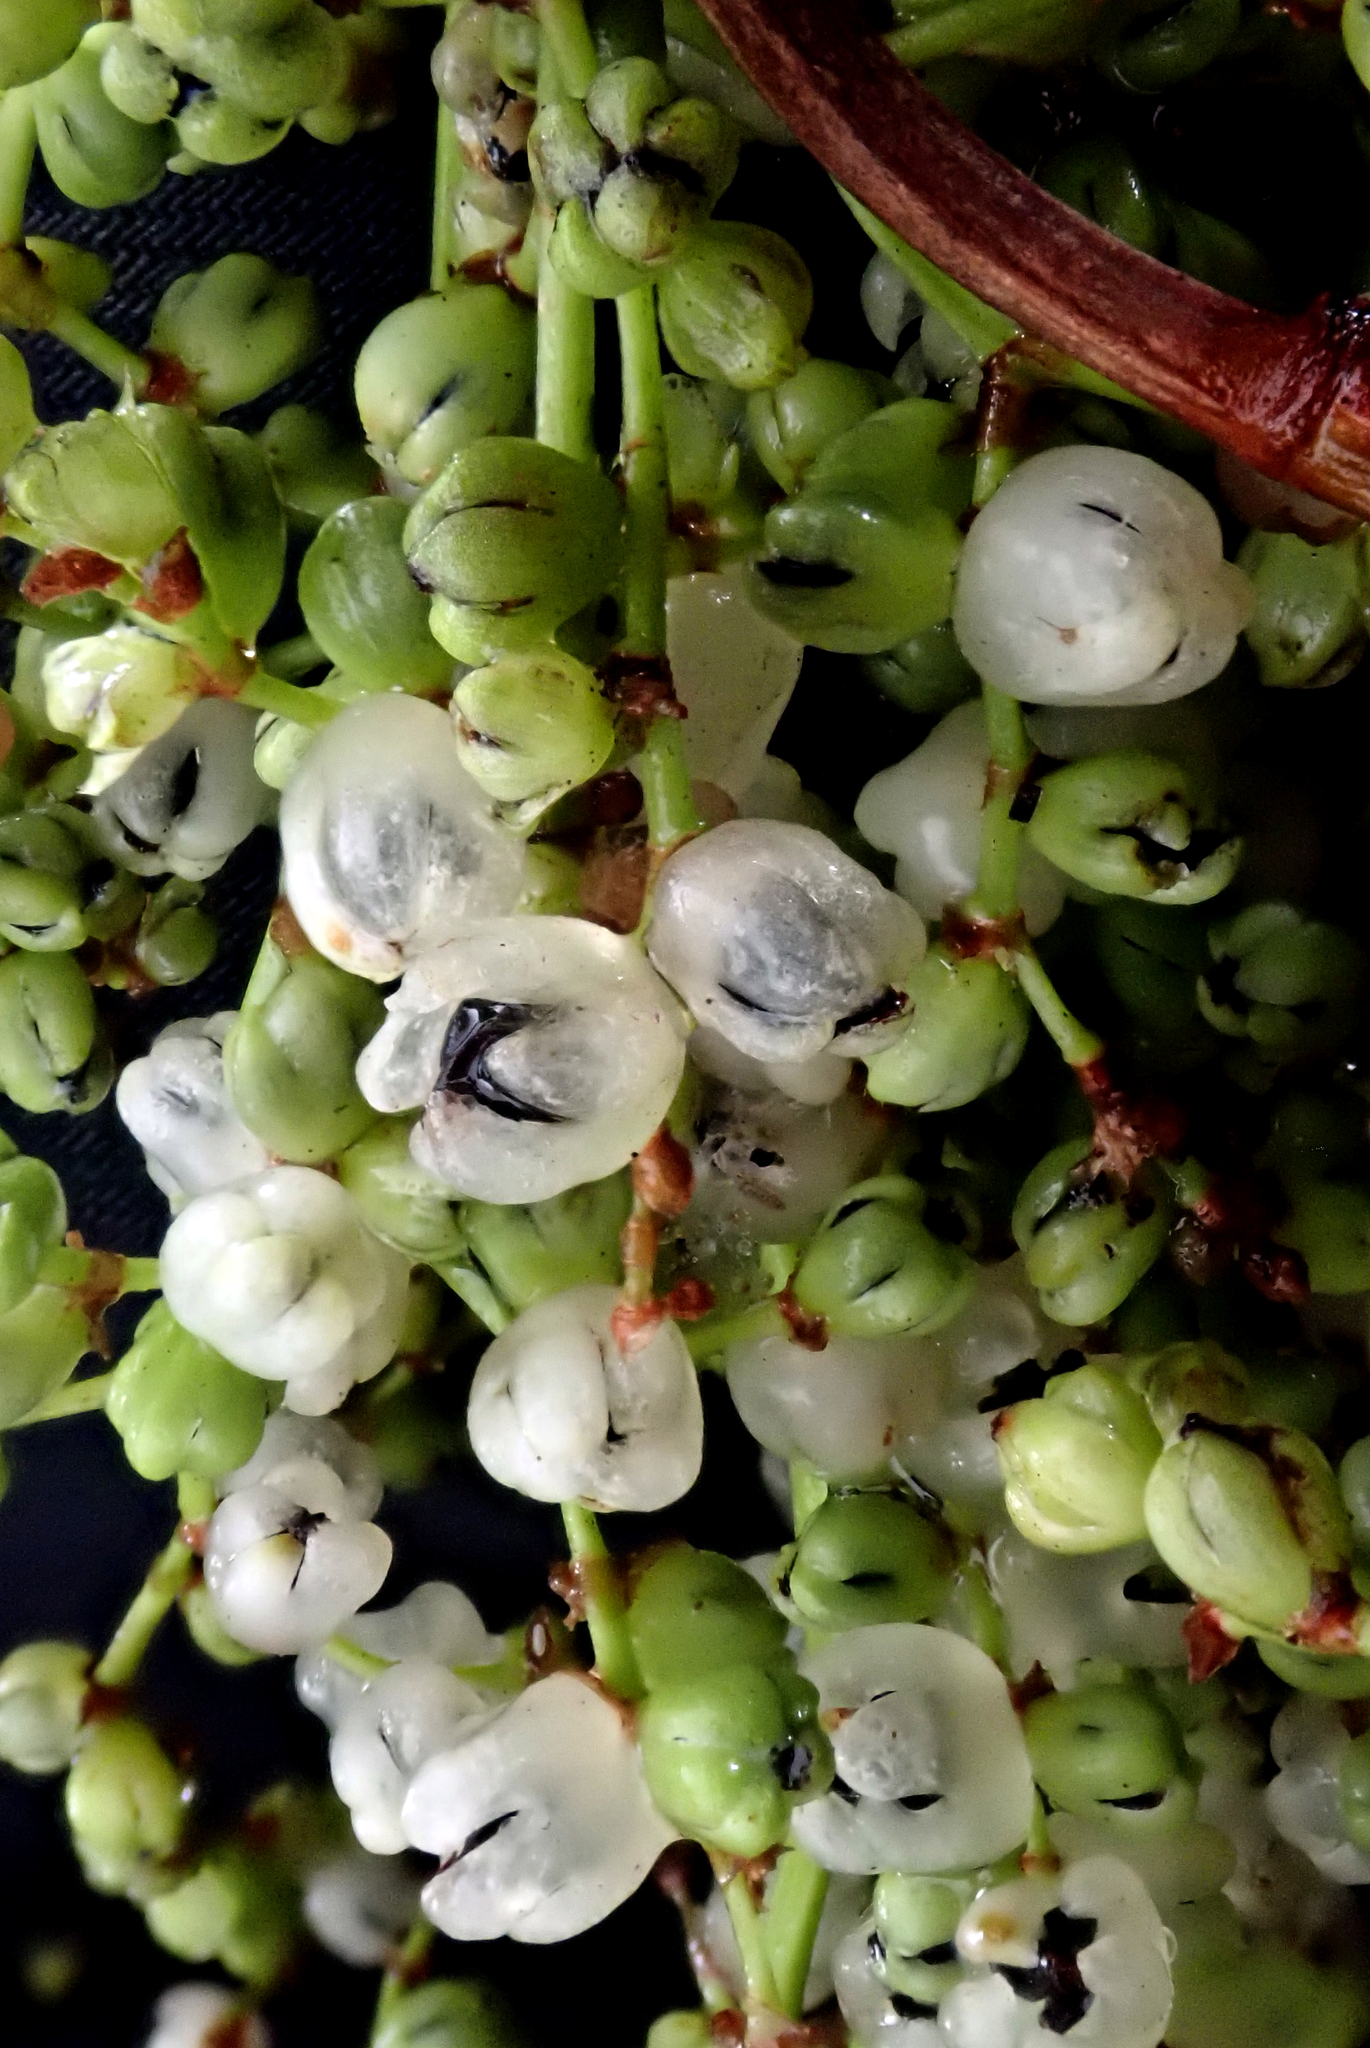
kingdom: Plantae
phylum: Tracheophyta
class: Magnoliopsida
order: Caryophyllales
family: Polygonaceae
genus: Muehlenbeckia
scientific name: Muehlenbeckia australis
